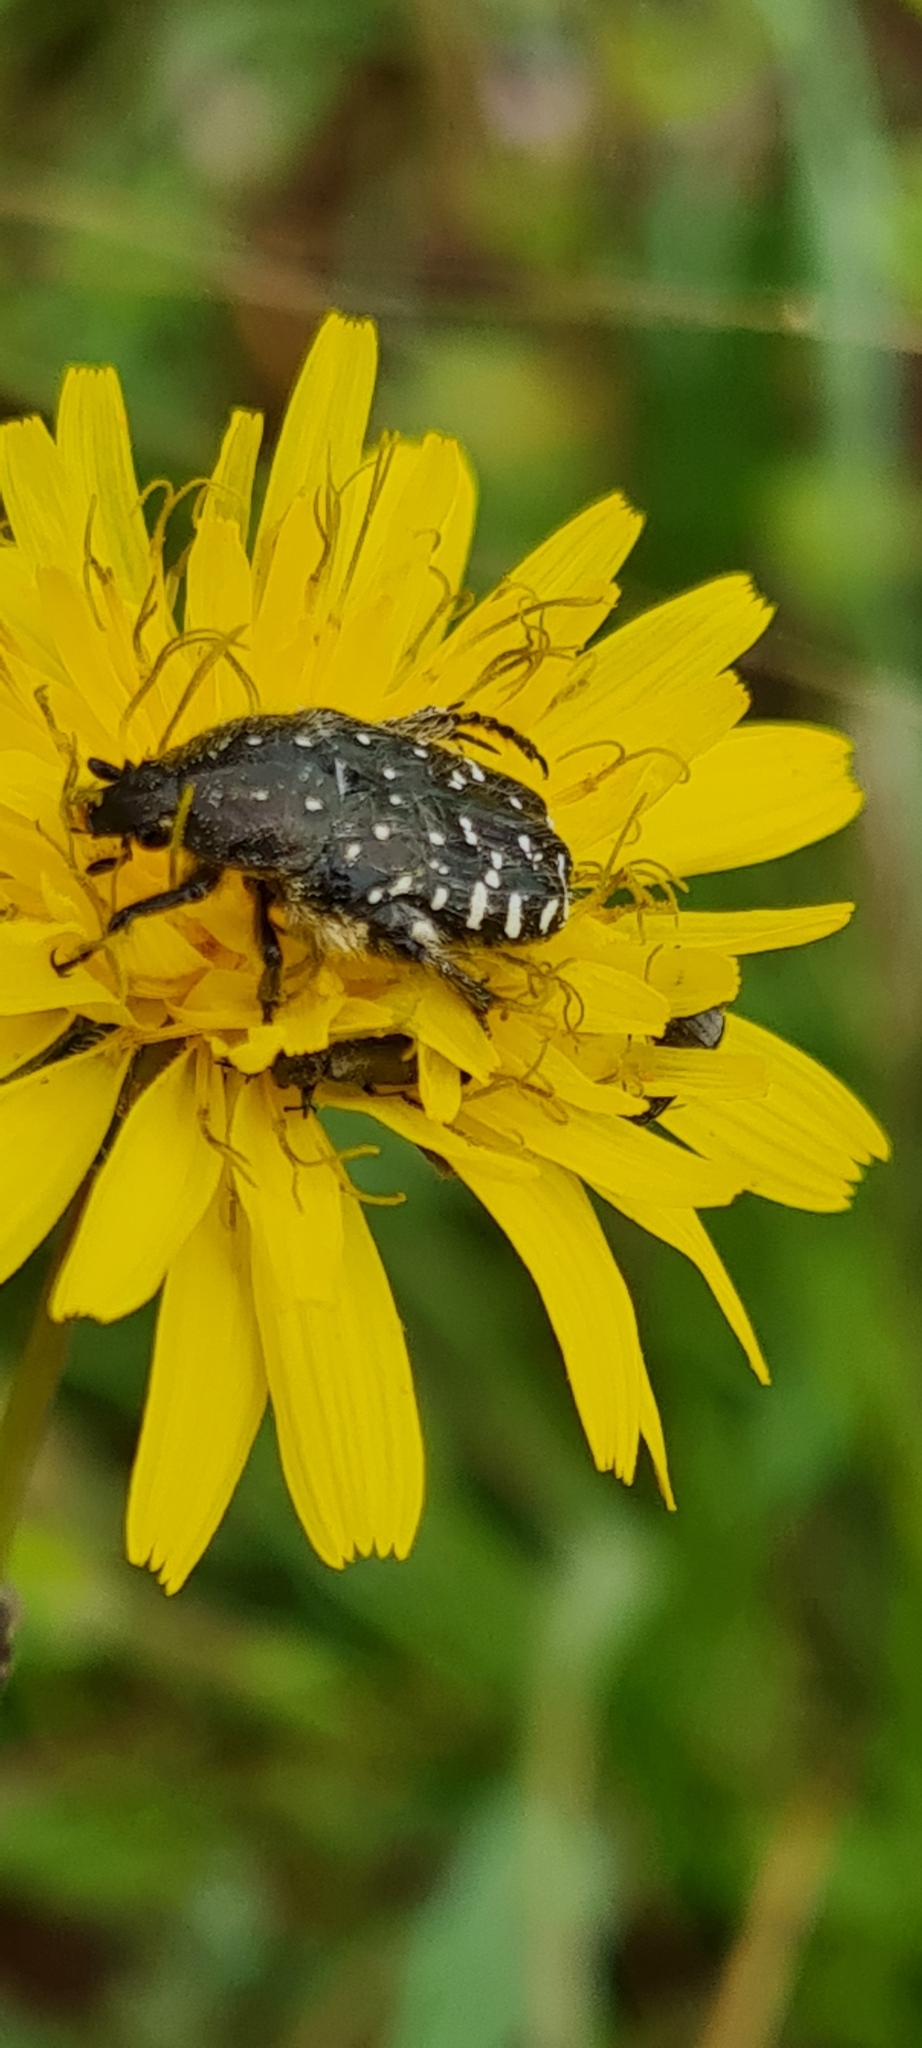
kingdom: Animalia
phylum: Arthropoda
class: Insecta
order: Coleoptera
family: Scarabaeidae
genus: Oxythyrea
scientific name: Oxythyrea funesta
